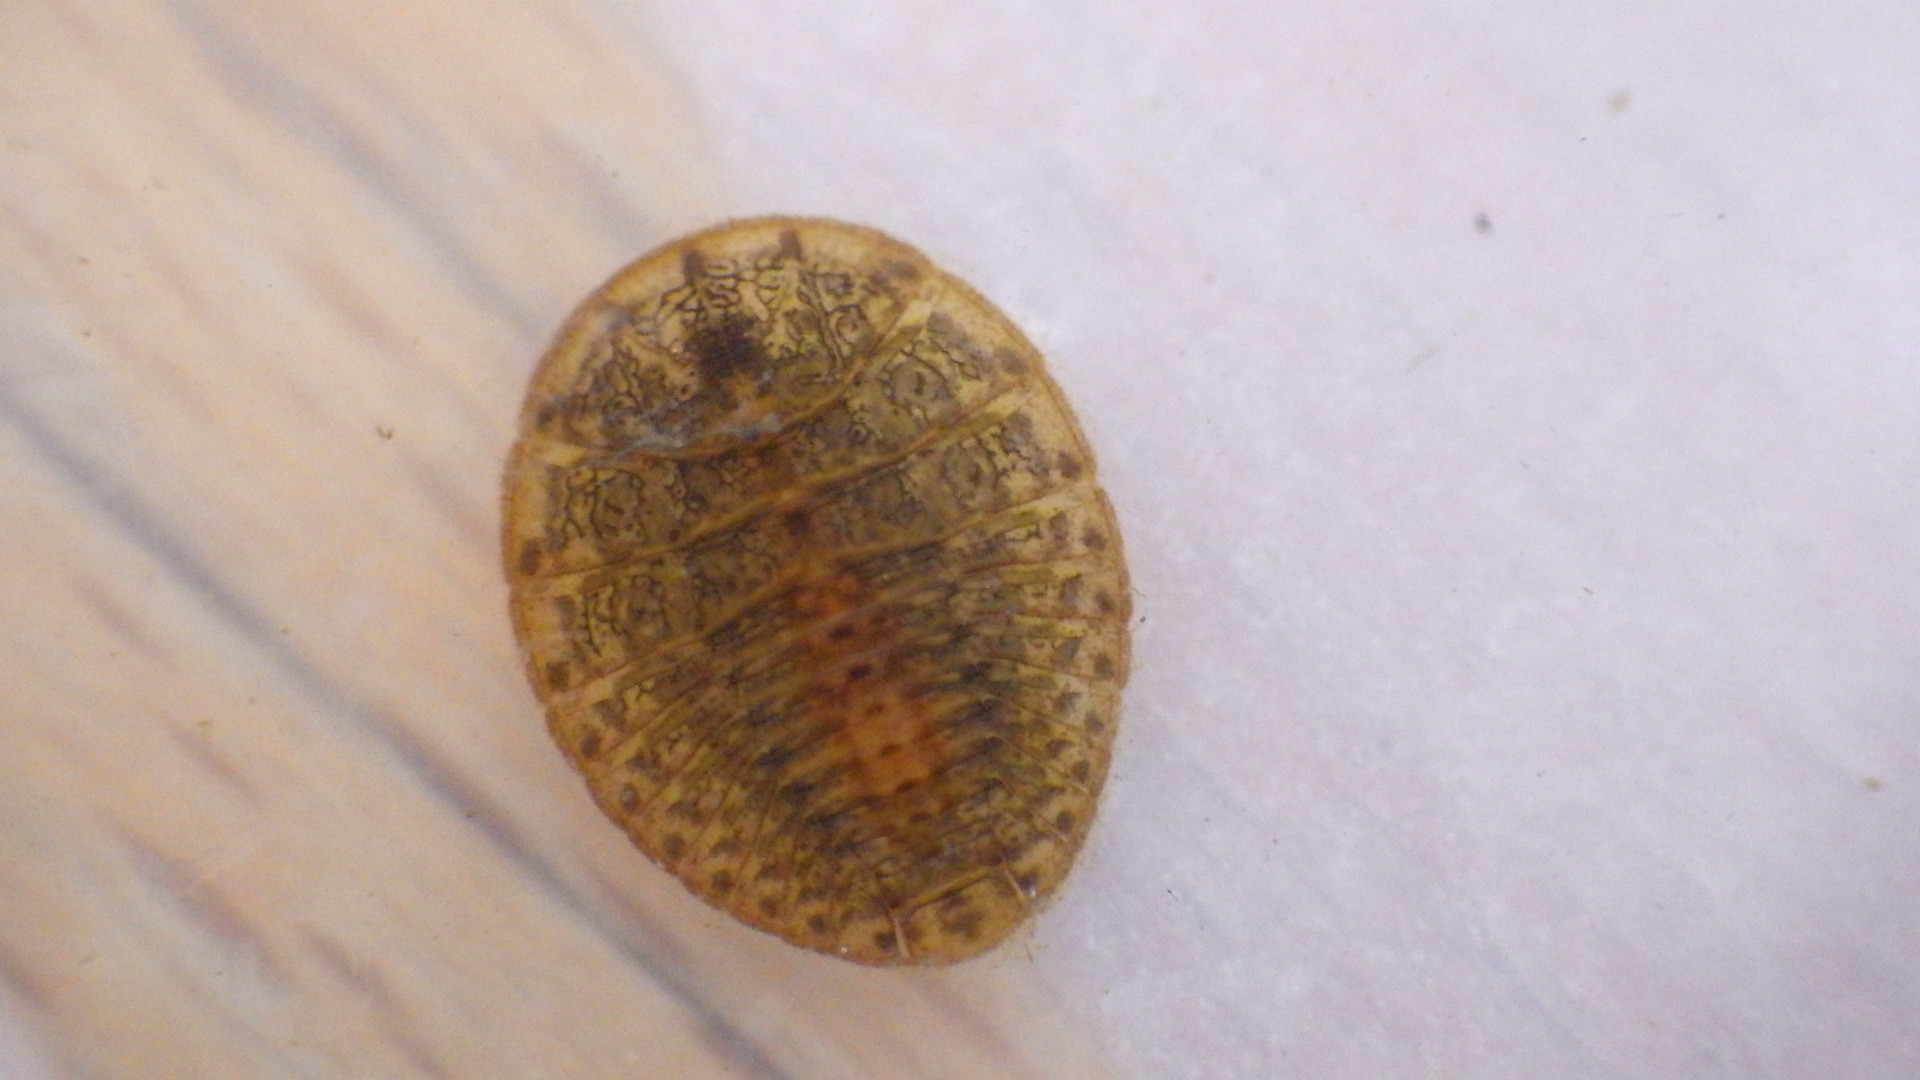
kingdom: Animalia
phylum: Arthropoda
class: Insecta
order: Coleoptera
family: Psephenidae
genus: Psephenus
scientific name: Psephenus herricki
